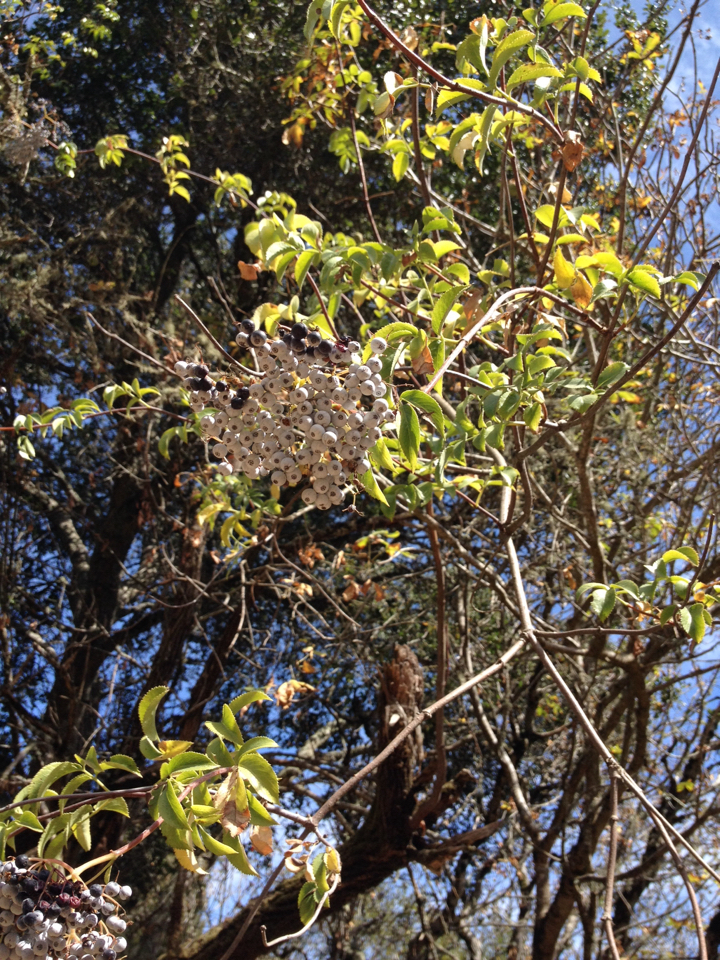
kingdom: Plantae
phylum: Tracheophyta
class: Magnoliopsida
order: Dipsacales
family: Viburnaceae
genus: Sambucus
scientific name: Sambucus cerulea
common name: Blue elder
